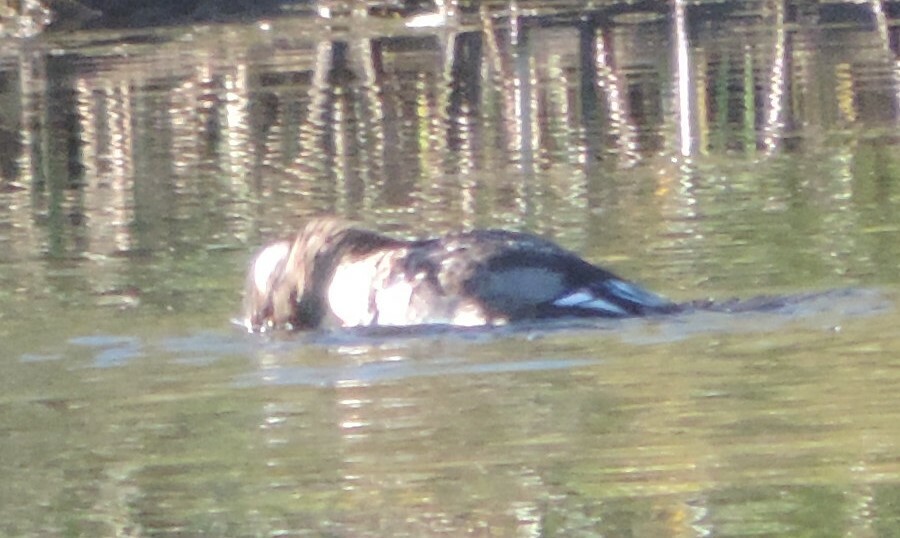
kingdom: Animalia
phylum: Chordata
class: Aves
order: Anseriformes
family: Anatidae
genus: Lophodytes
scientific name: Lophodytes cucullatus
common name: Hooded merganser
